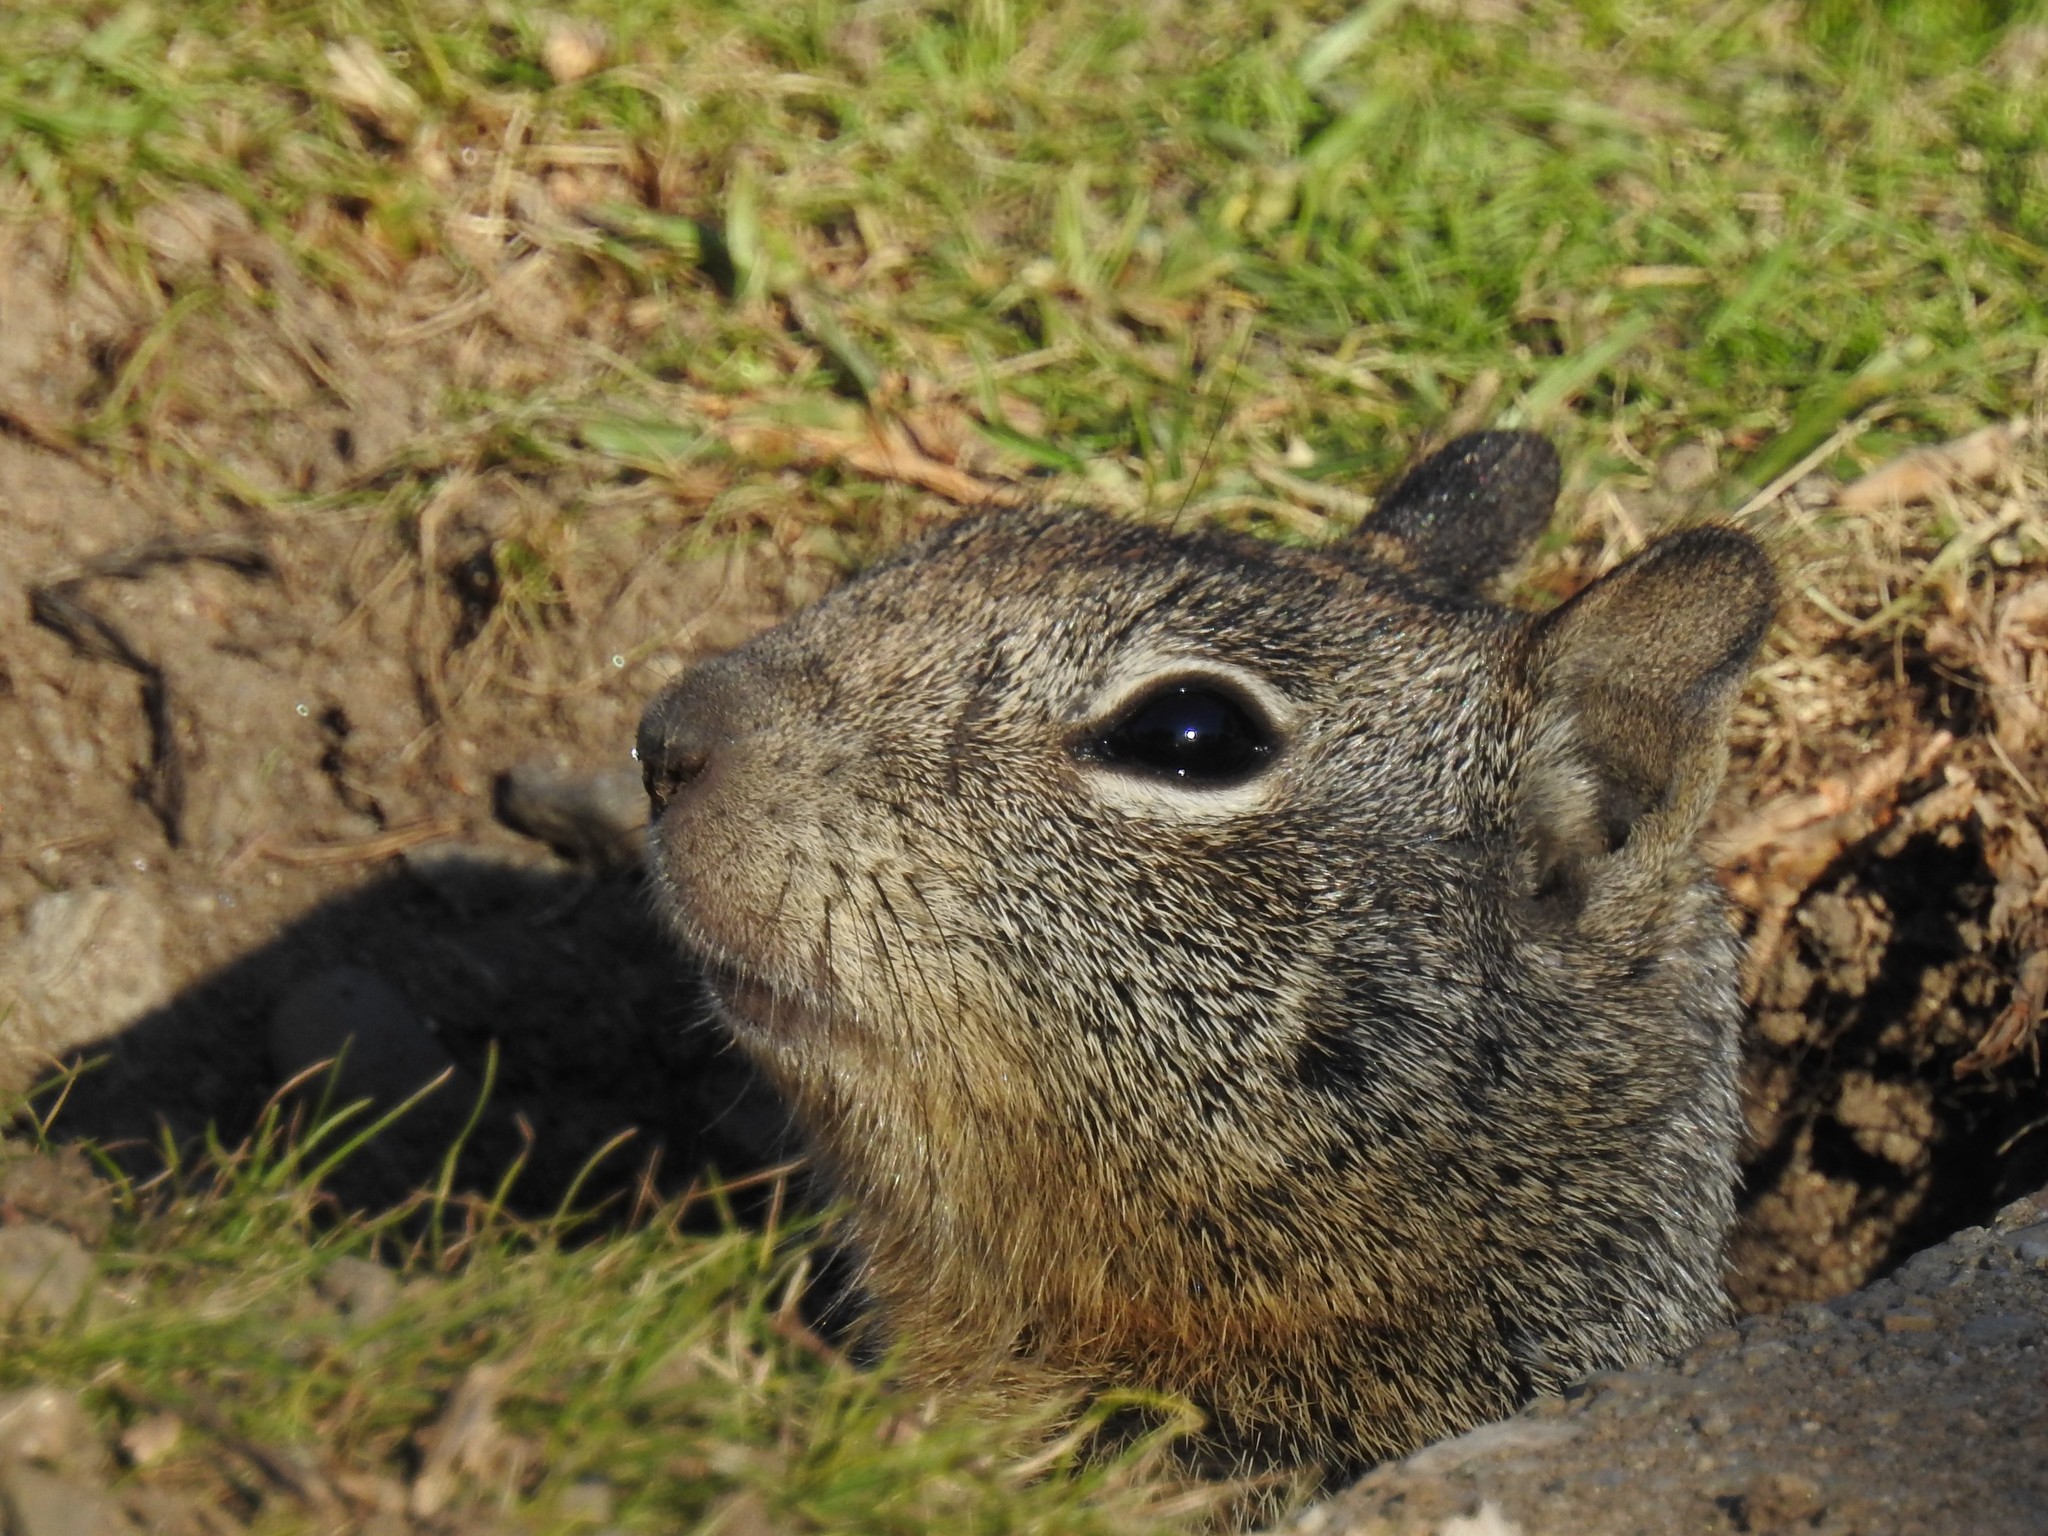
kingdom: Animalia
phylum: Chordata
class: Mammalia
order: Rodentia
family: Sciuridae
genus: Otospermophilus
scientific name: Otospermophilus beecheyi
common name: California ground squirrel
